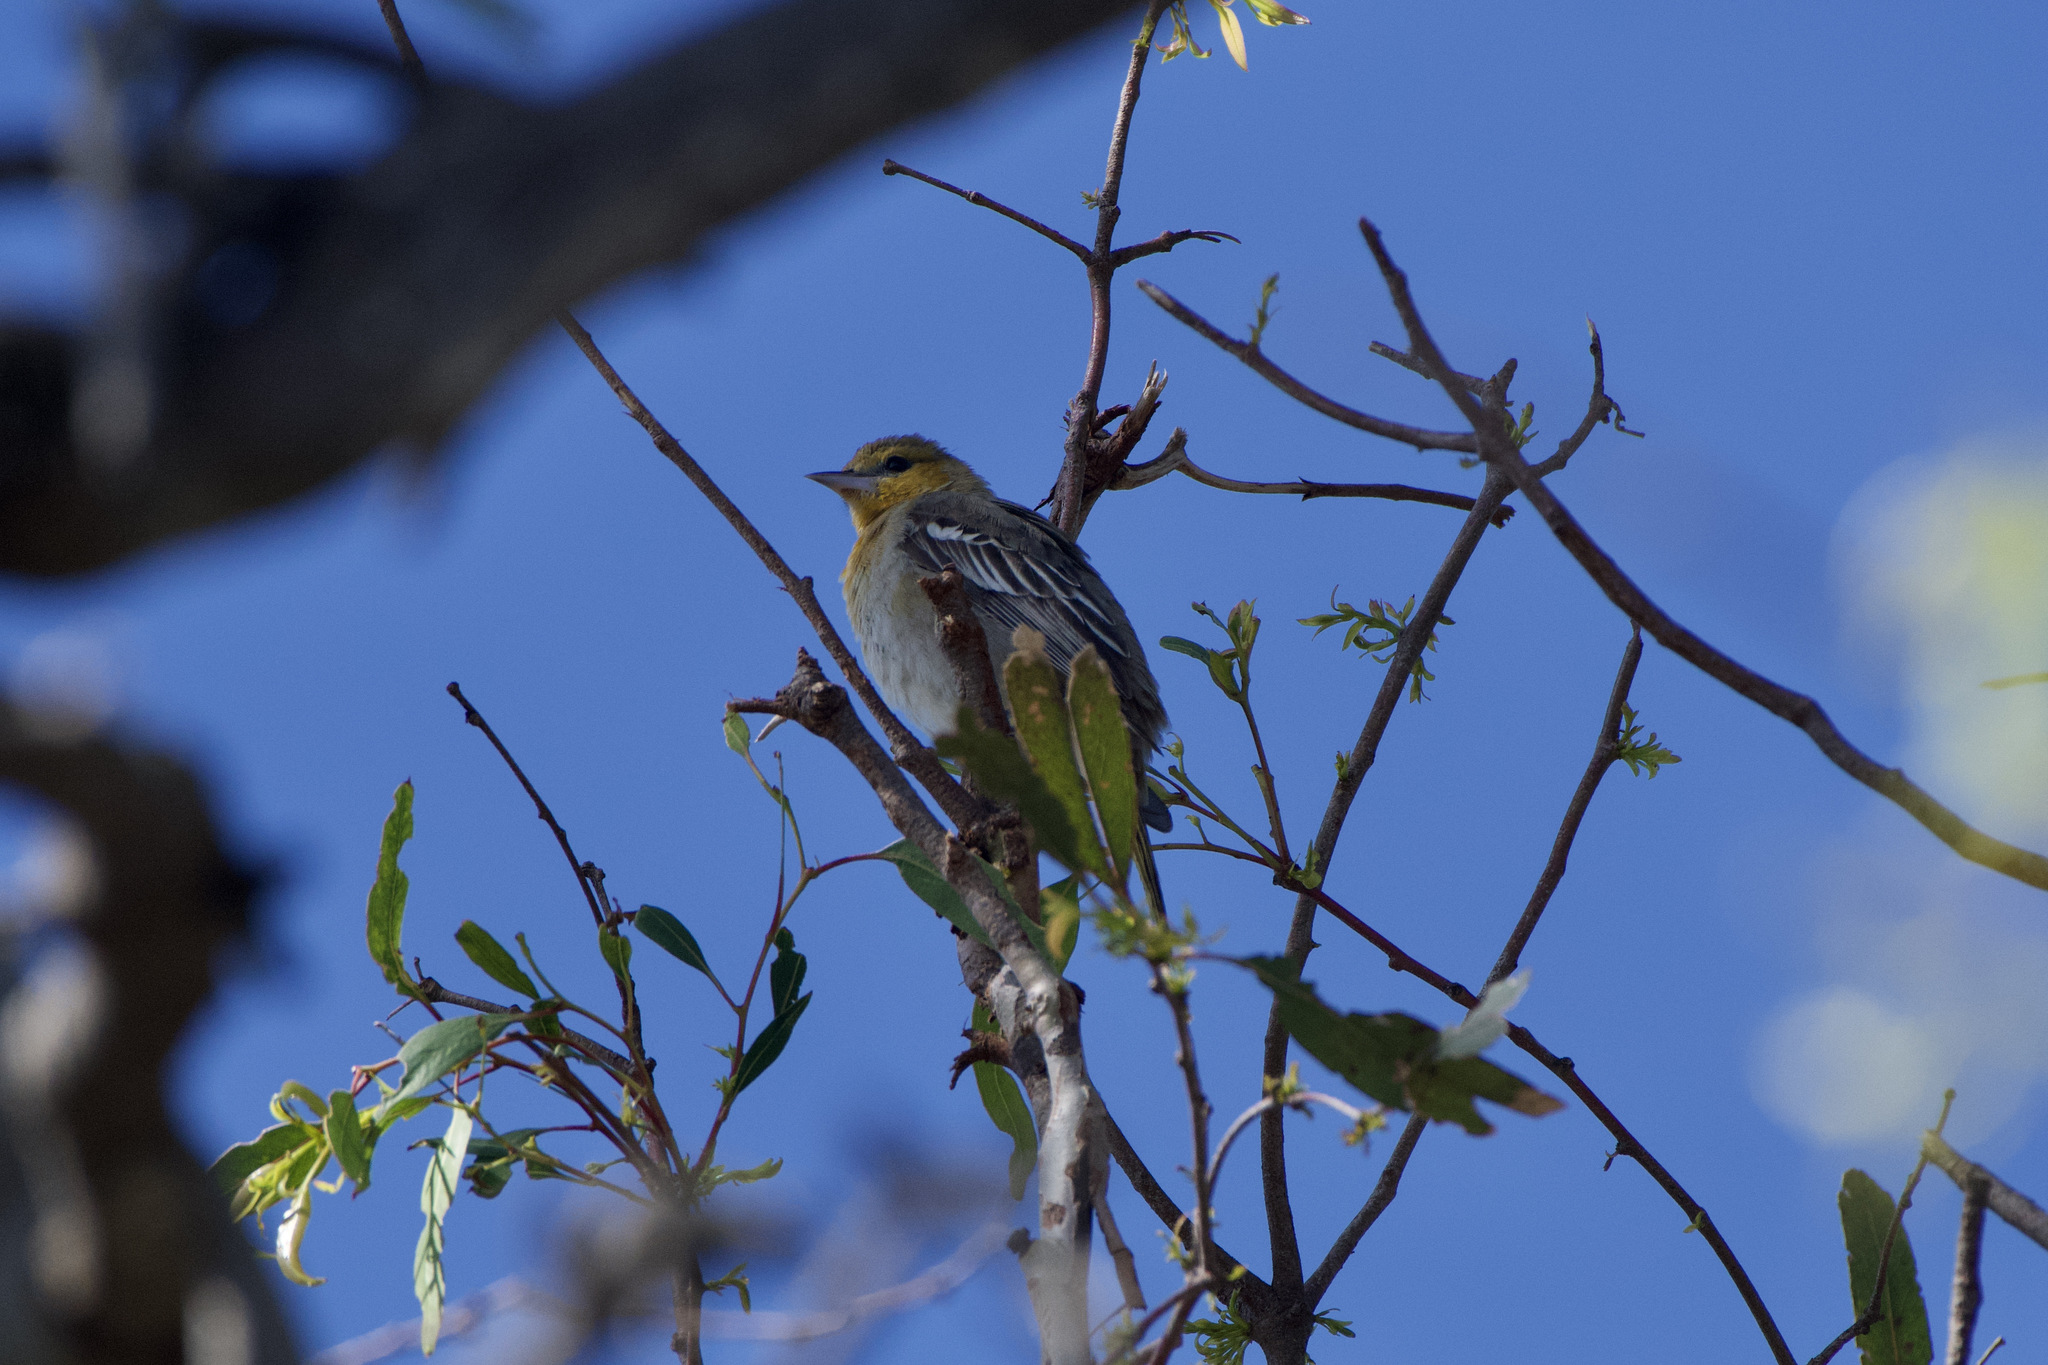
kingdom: Animalia
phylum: Chordata
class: Aves
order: Passeriformes
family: Icteridae
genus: Icterus
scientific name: Icterus bullockii
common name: Bullock's oriole
